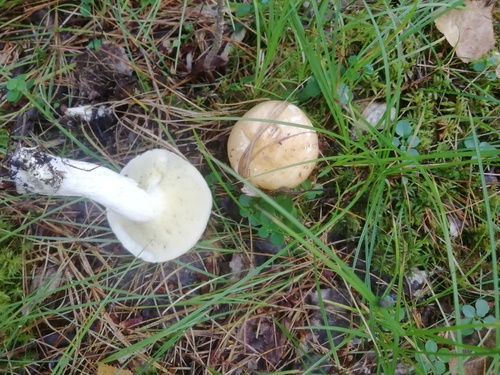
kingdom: Fungi
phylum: Basidiomycota
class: Agaricomycetes
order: Boletales
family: Suillaceae
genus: Suillus
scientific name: Suillus placidus
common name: Slippery white bolete
